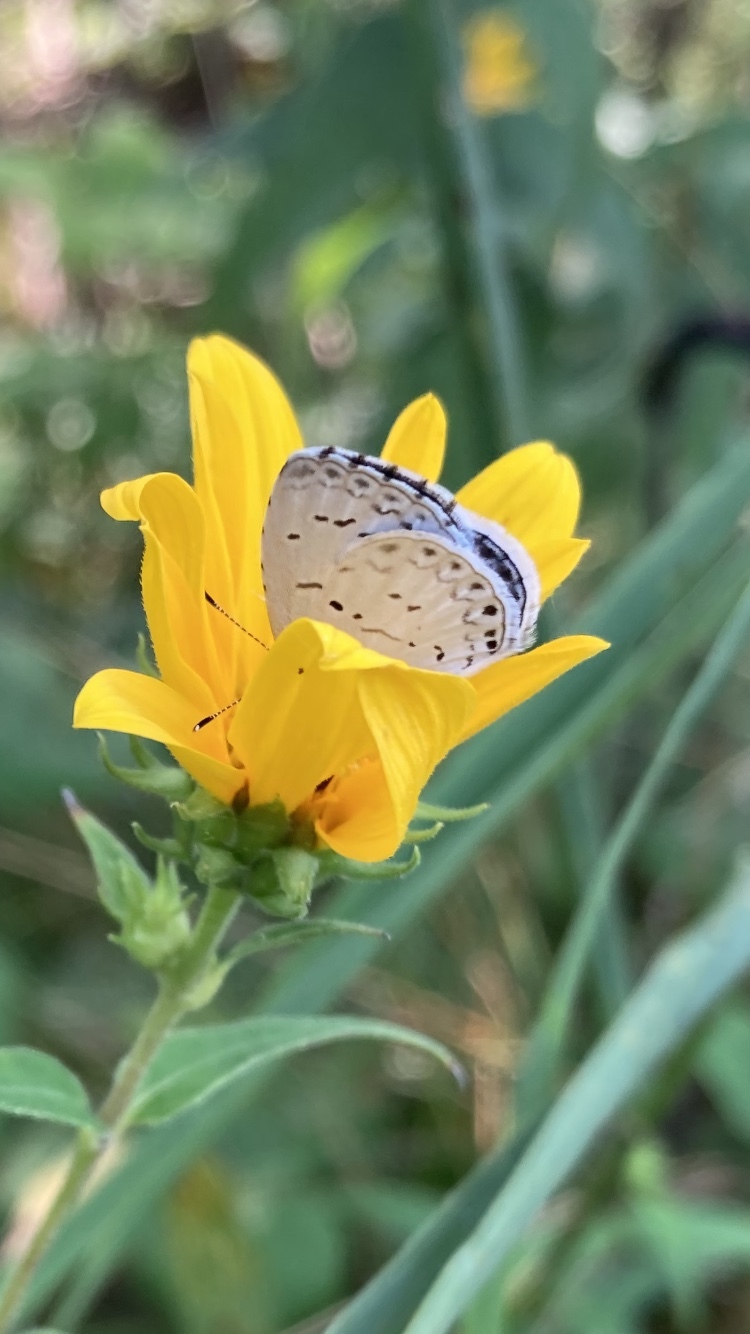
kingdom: Animalia
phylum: Arthropoda
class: Insecta
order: Lepidoptera
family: Lycaenidae
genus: Cyaniris
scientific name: Cyaniris neglecta
